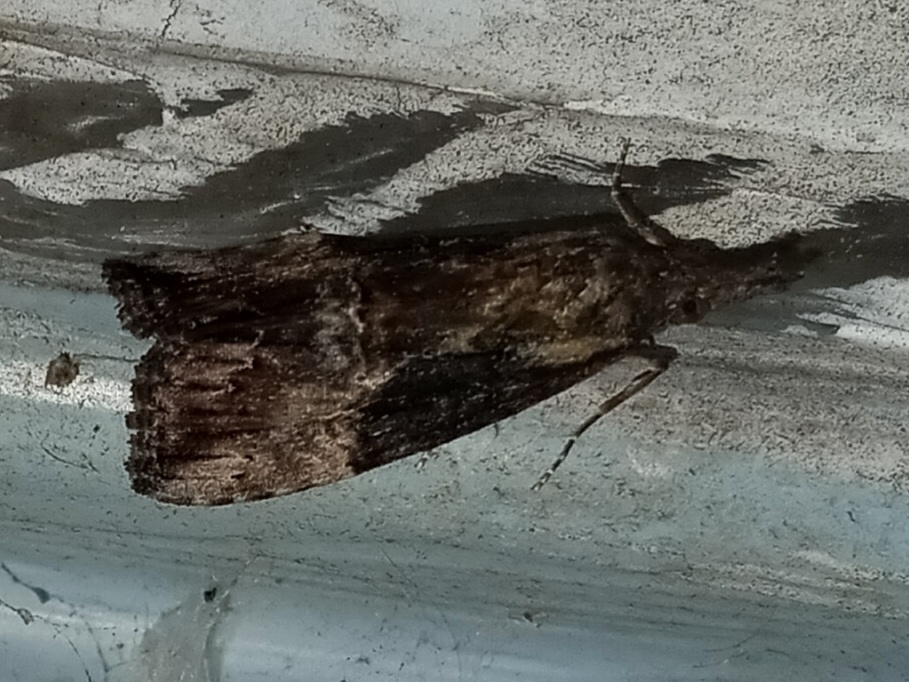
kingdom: Animalia
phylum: Arthropoda
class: Insecta
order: Lepidoptera
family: Erebidae
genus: Hypena
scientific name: Hypena scabra
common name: Green cloverworm
